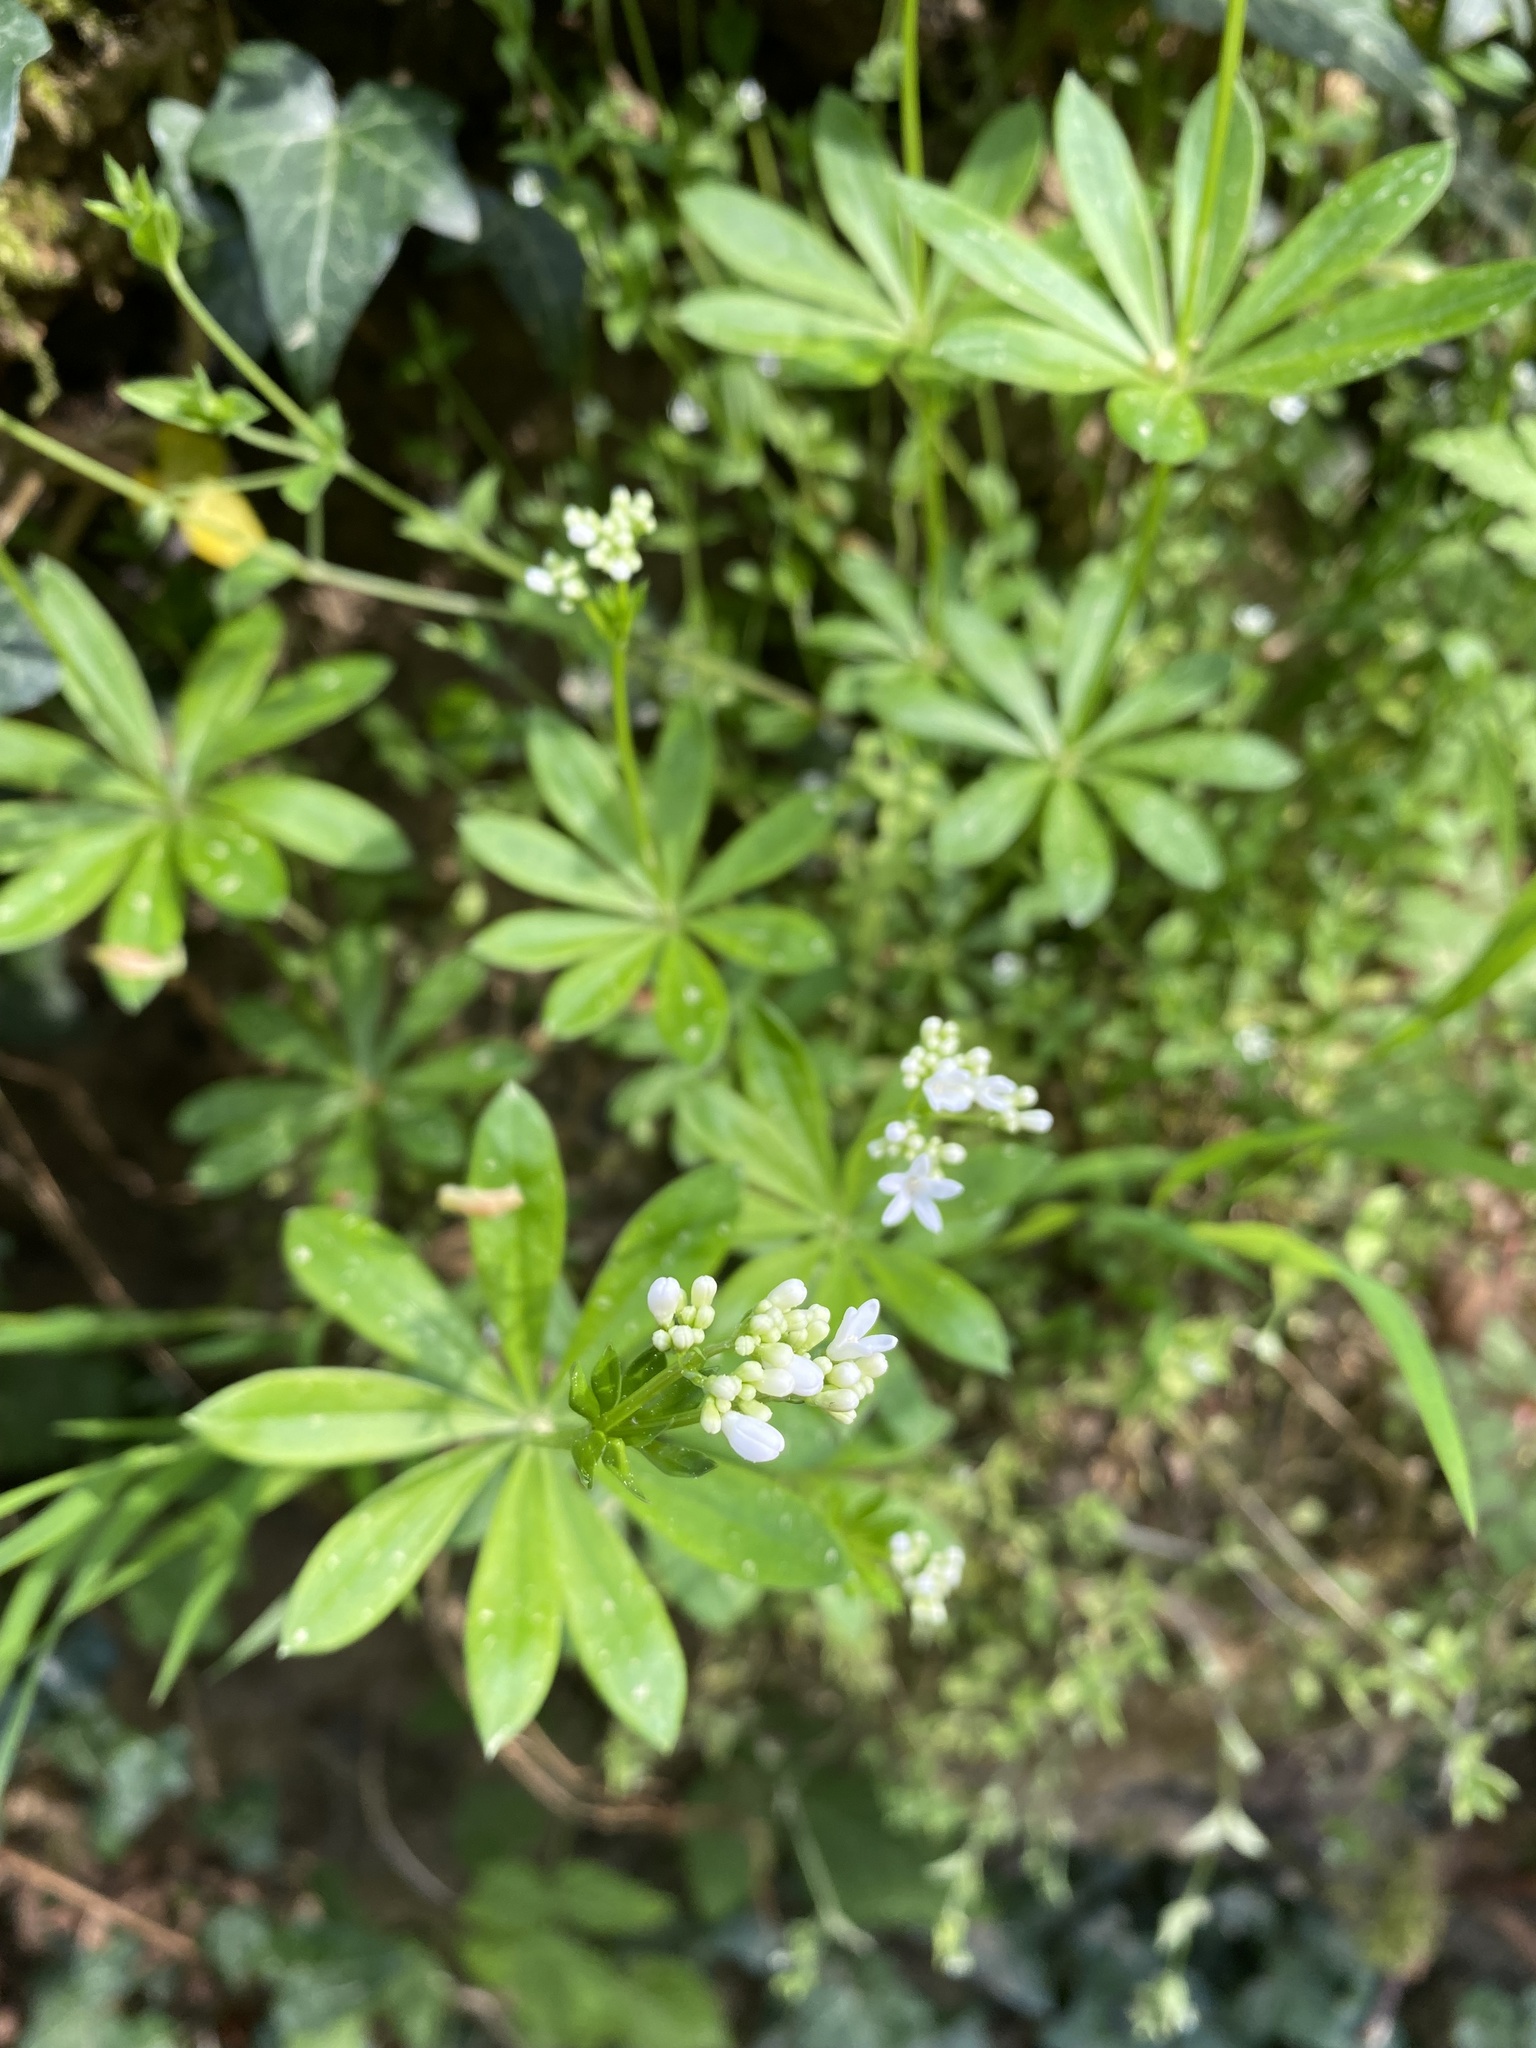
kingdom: Plantae
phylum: Tracheophyta
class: Magnoliopsida
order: Gentianales
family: Rubiaceae
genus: Galium
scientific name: Galium odoratum
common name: Sweet woodruff
